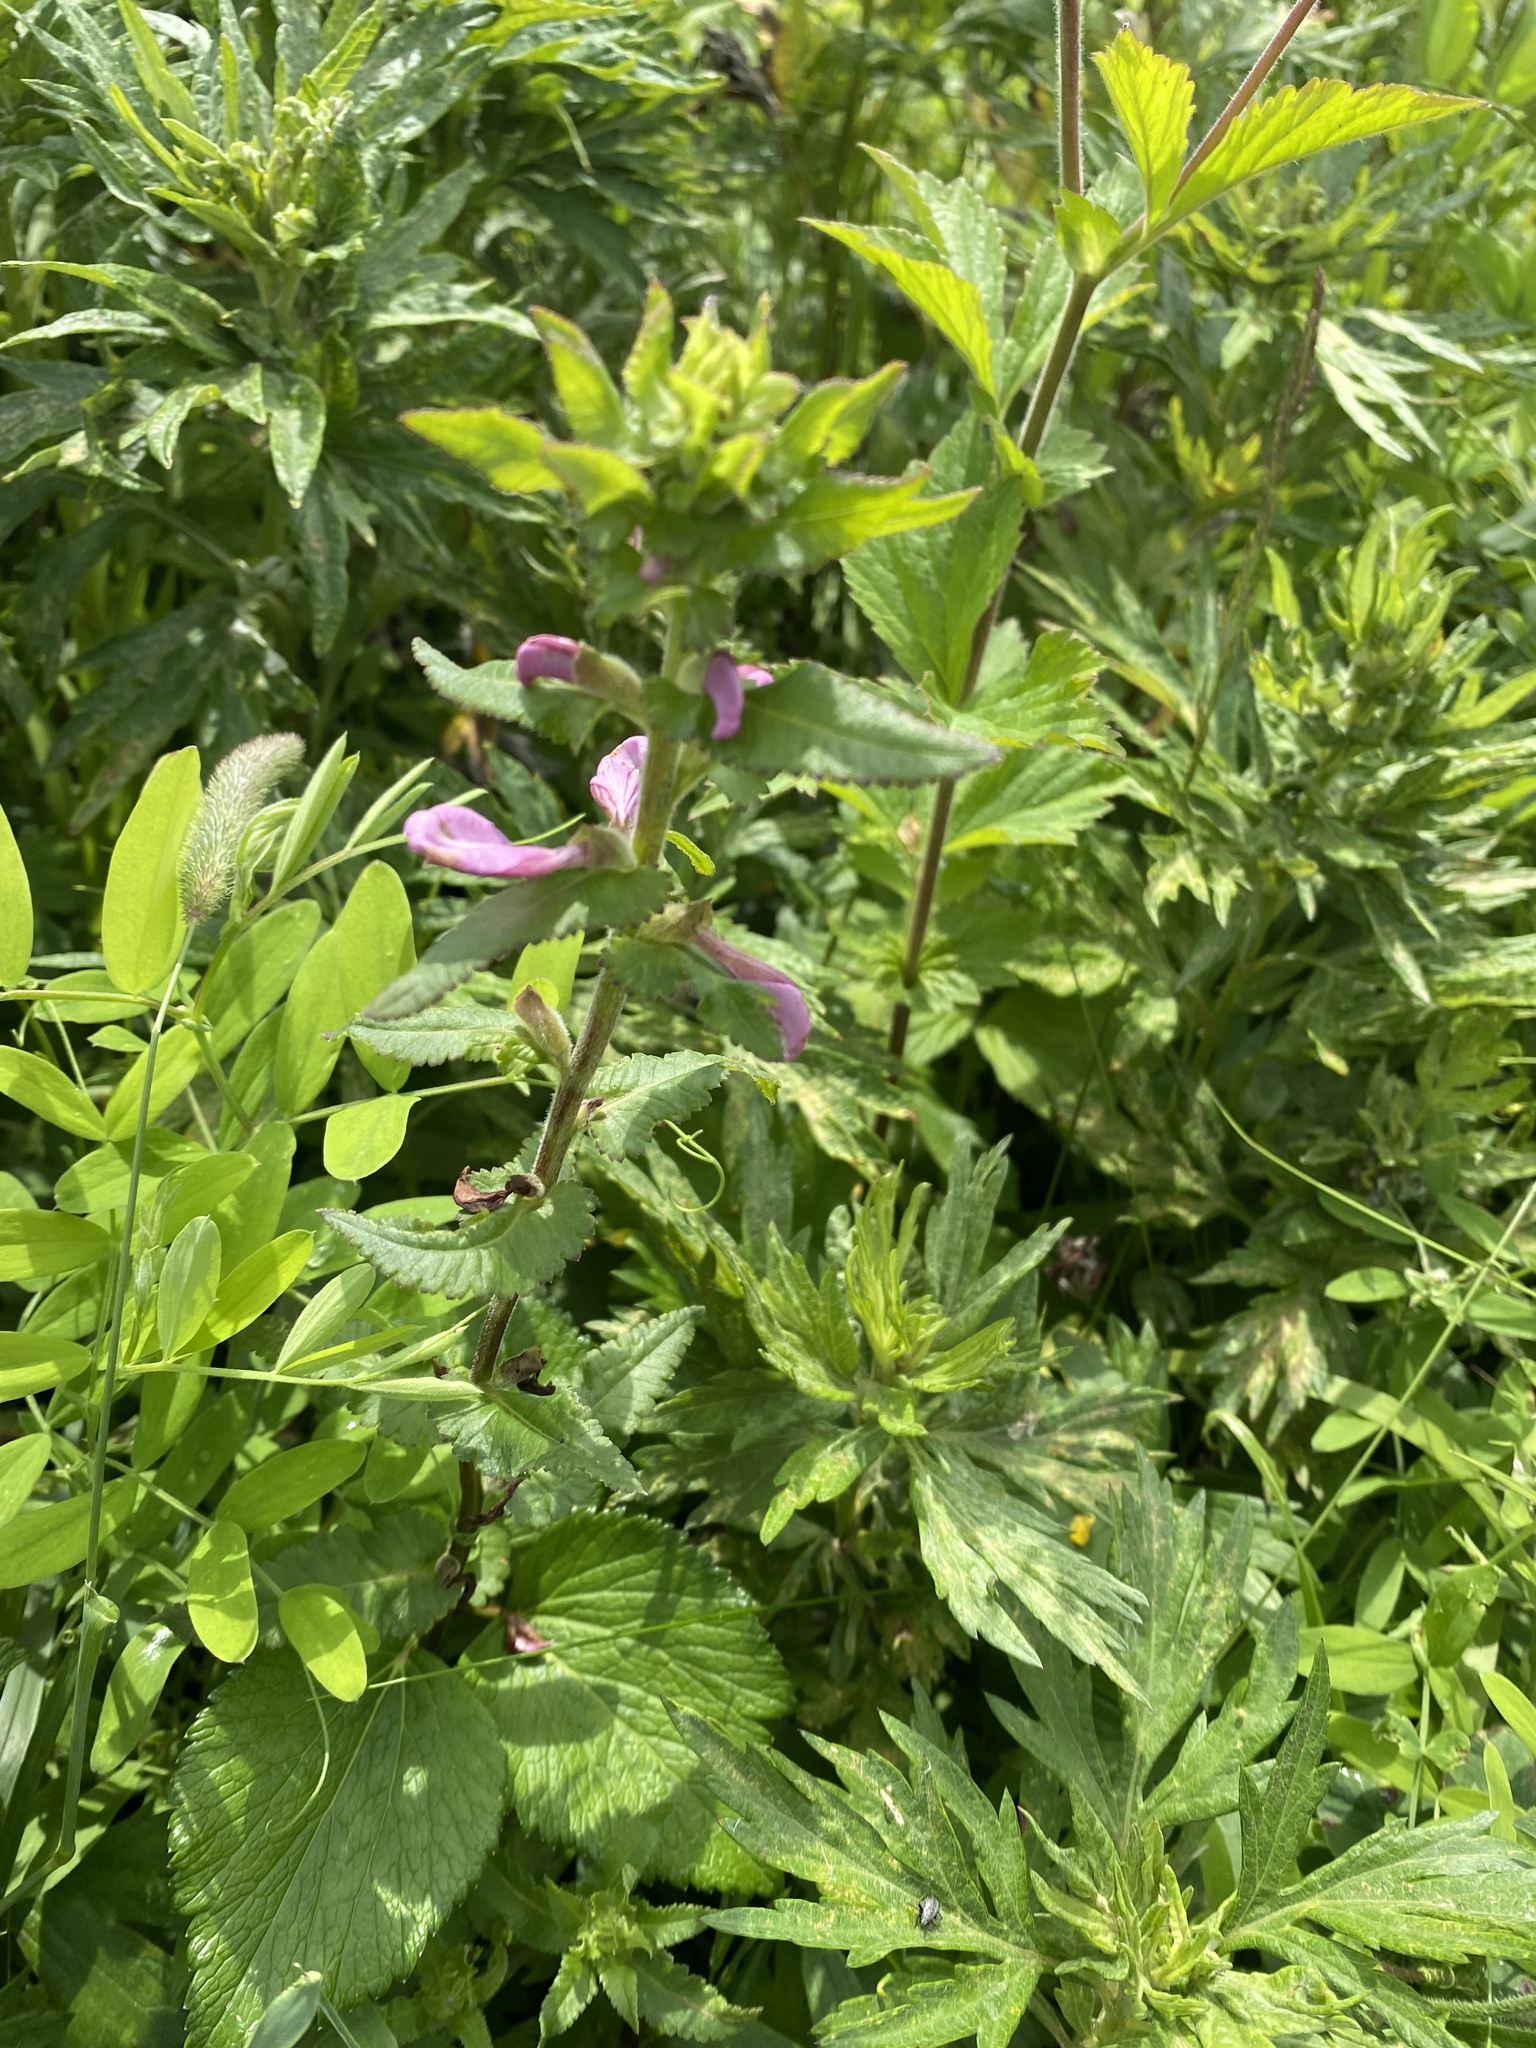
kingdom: Plantae
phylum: Tracheophyta
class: Magnoliopsida
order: Lamiales
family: Orobanchaceae
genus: Pedicularis
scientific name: Pedicularis resupinata
